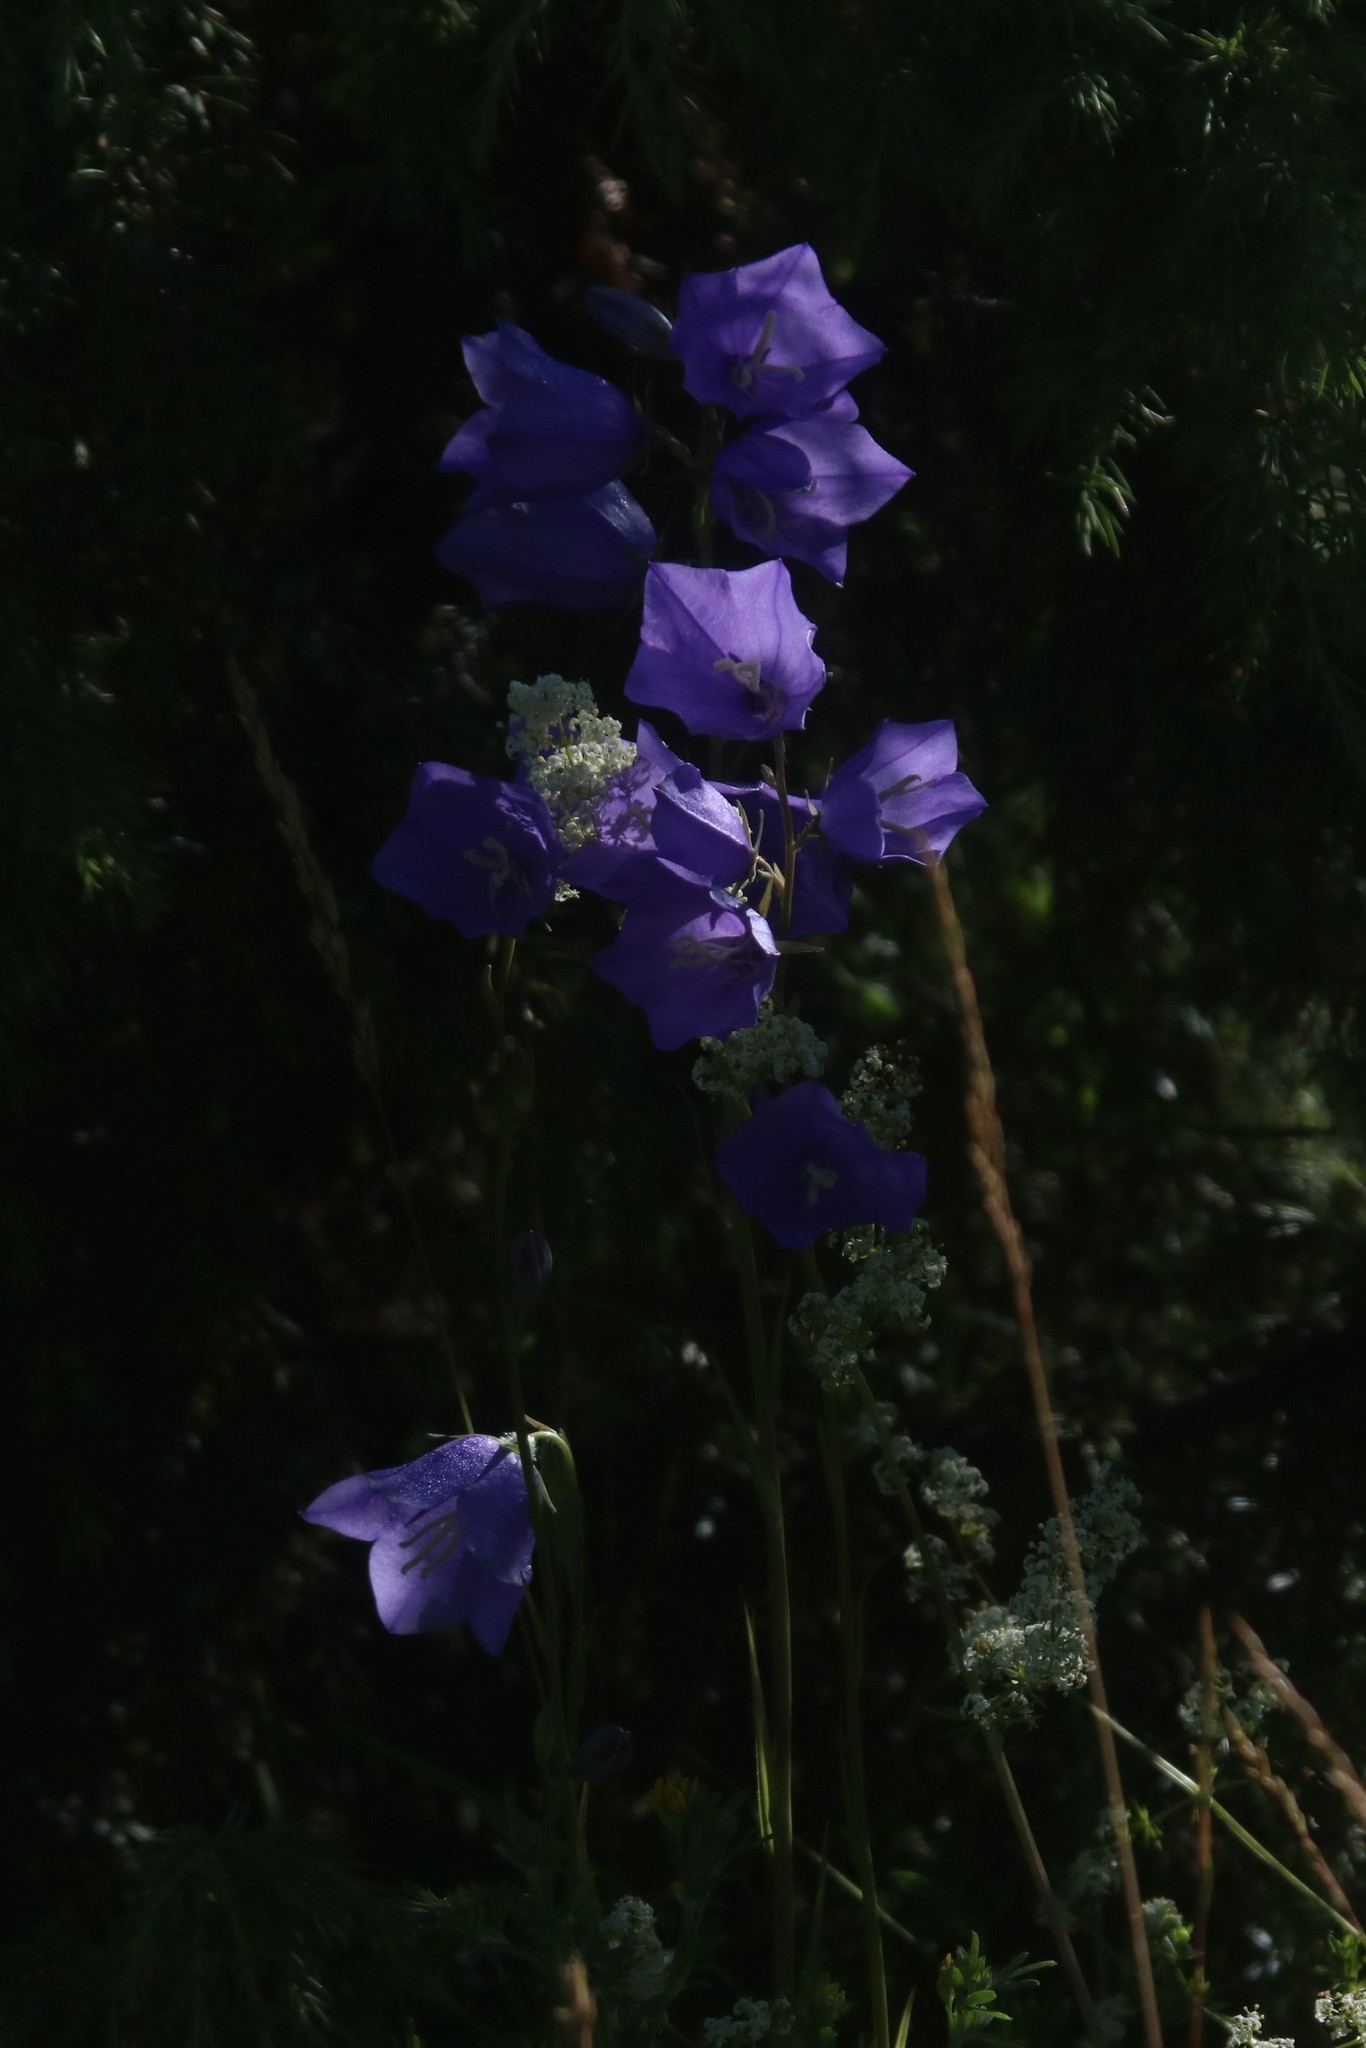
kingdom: Plantae
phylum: Tracheophyta
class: Magnoliopsida
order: Asterales
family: Campanulaceae
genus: Campanula
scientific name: Campanula persicifolia
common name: Peach-leaved bellflower
